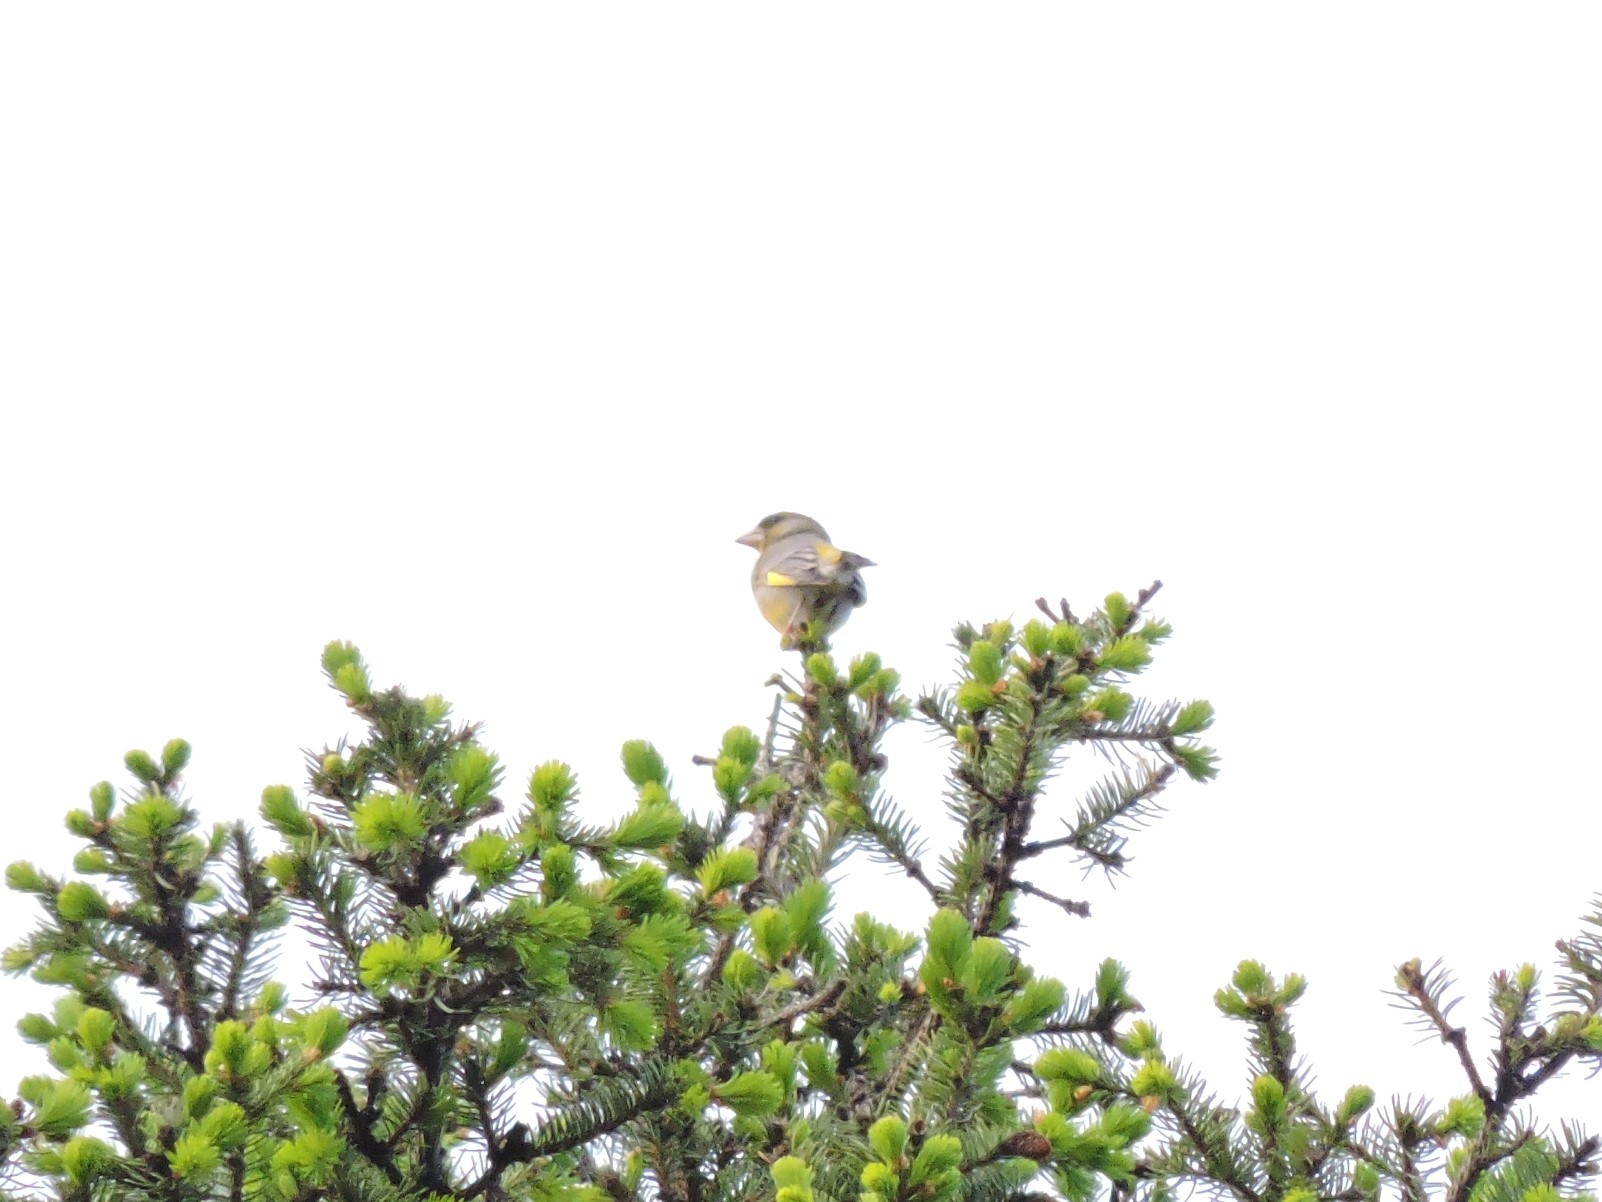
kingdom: Plantae
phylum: Tracheophyta
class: Liliopsida
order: Poales
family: Poaceae
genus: Chloris
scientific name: Chloris chloris
